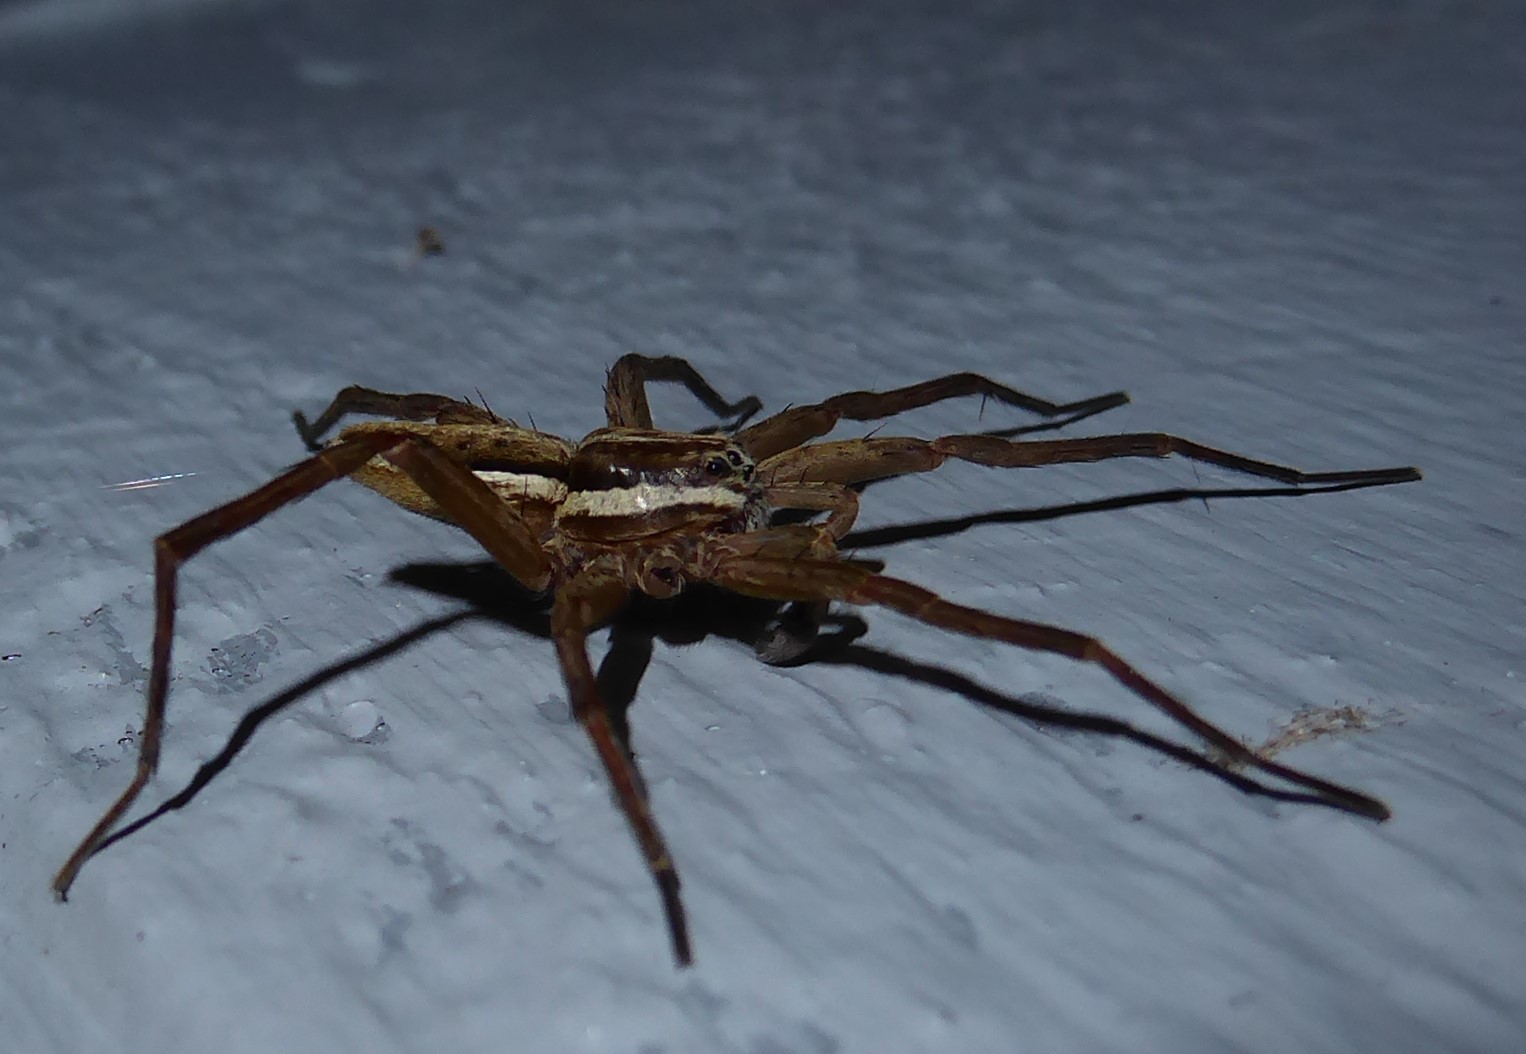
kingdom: Animalia
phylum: Arthropoda
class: Arachnida
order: Araneae
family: Pisauridae
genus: Dolomedes
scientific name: Dolomedes minor
